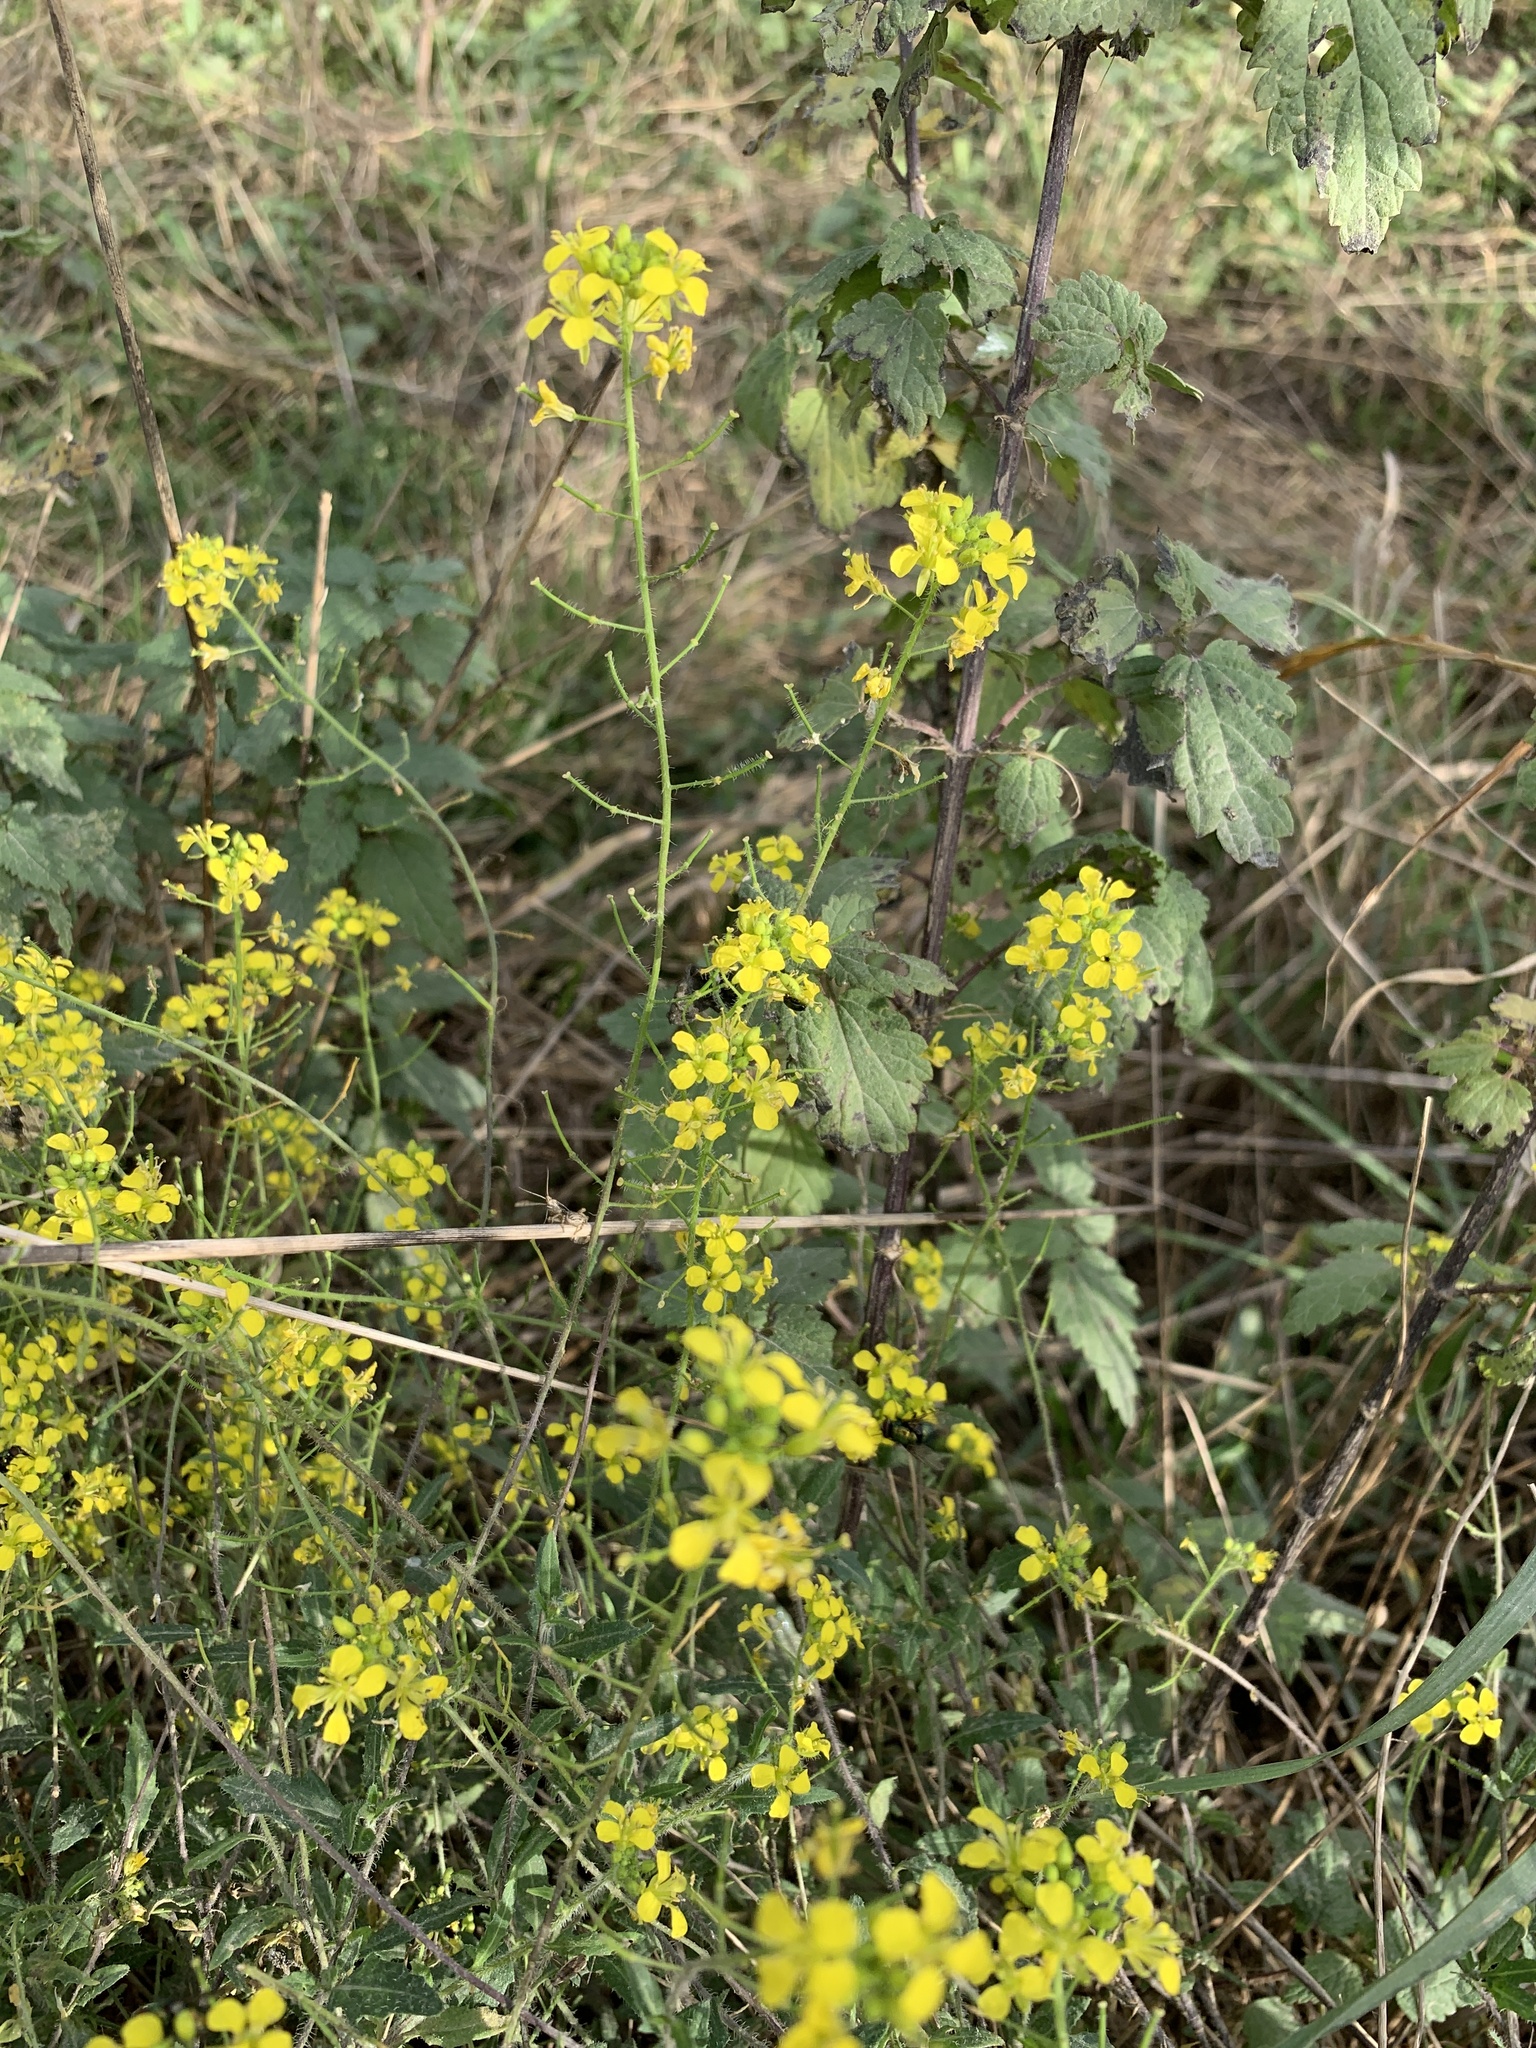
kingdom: Plantae
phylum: Tracheophyta
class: Magnoliopsida
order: Brassicales
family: Brassicaceae
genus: Sisymbrium
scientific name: Sisymbrium loeselii
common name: False london-rocket
